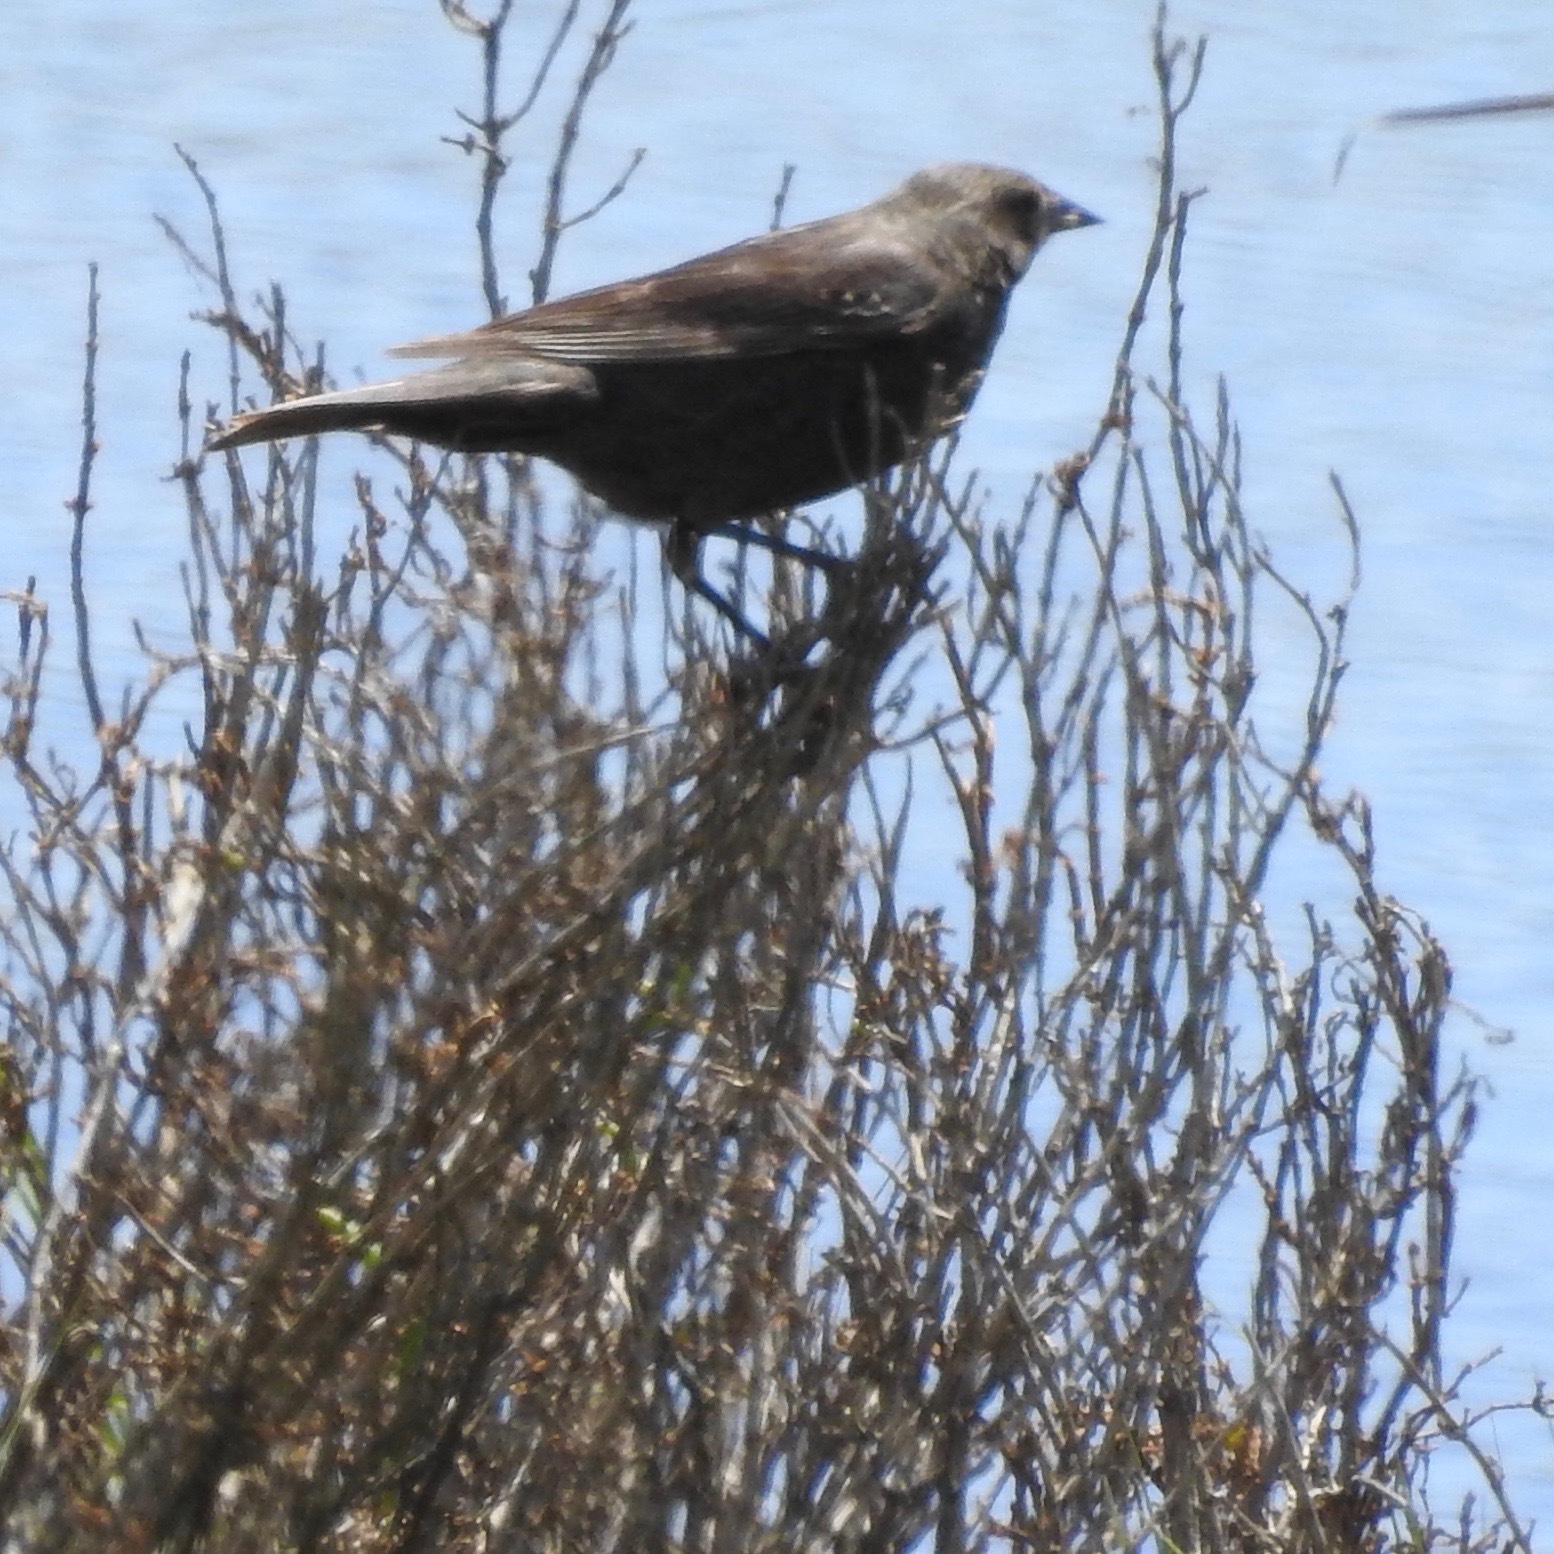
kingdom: Animalia
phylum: Chordata
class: Aves
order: Passeriformes
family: Icteridae
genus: Molothrus
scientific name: Molothrus ater
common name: Brown-headed cowbird
